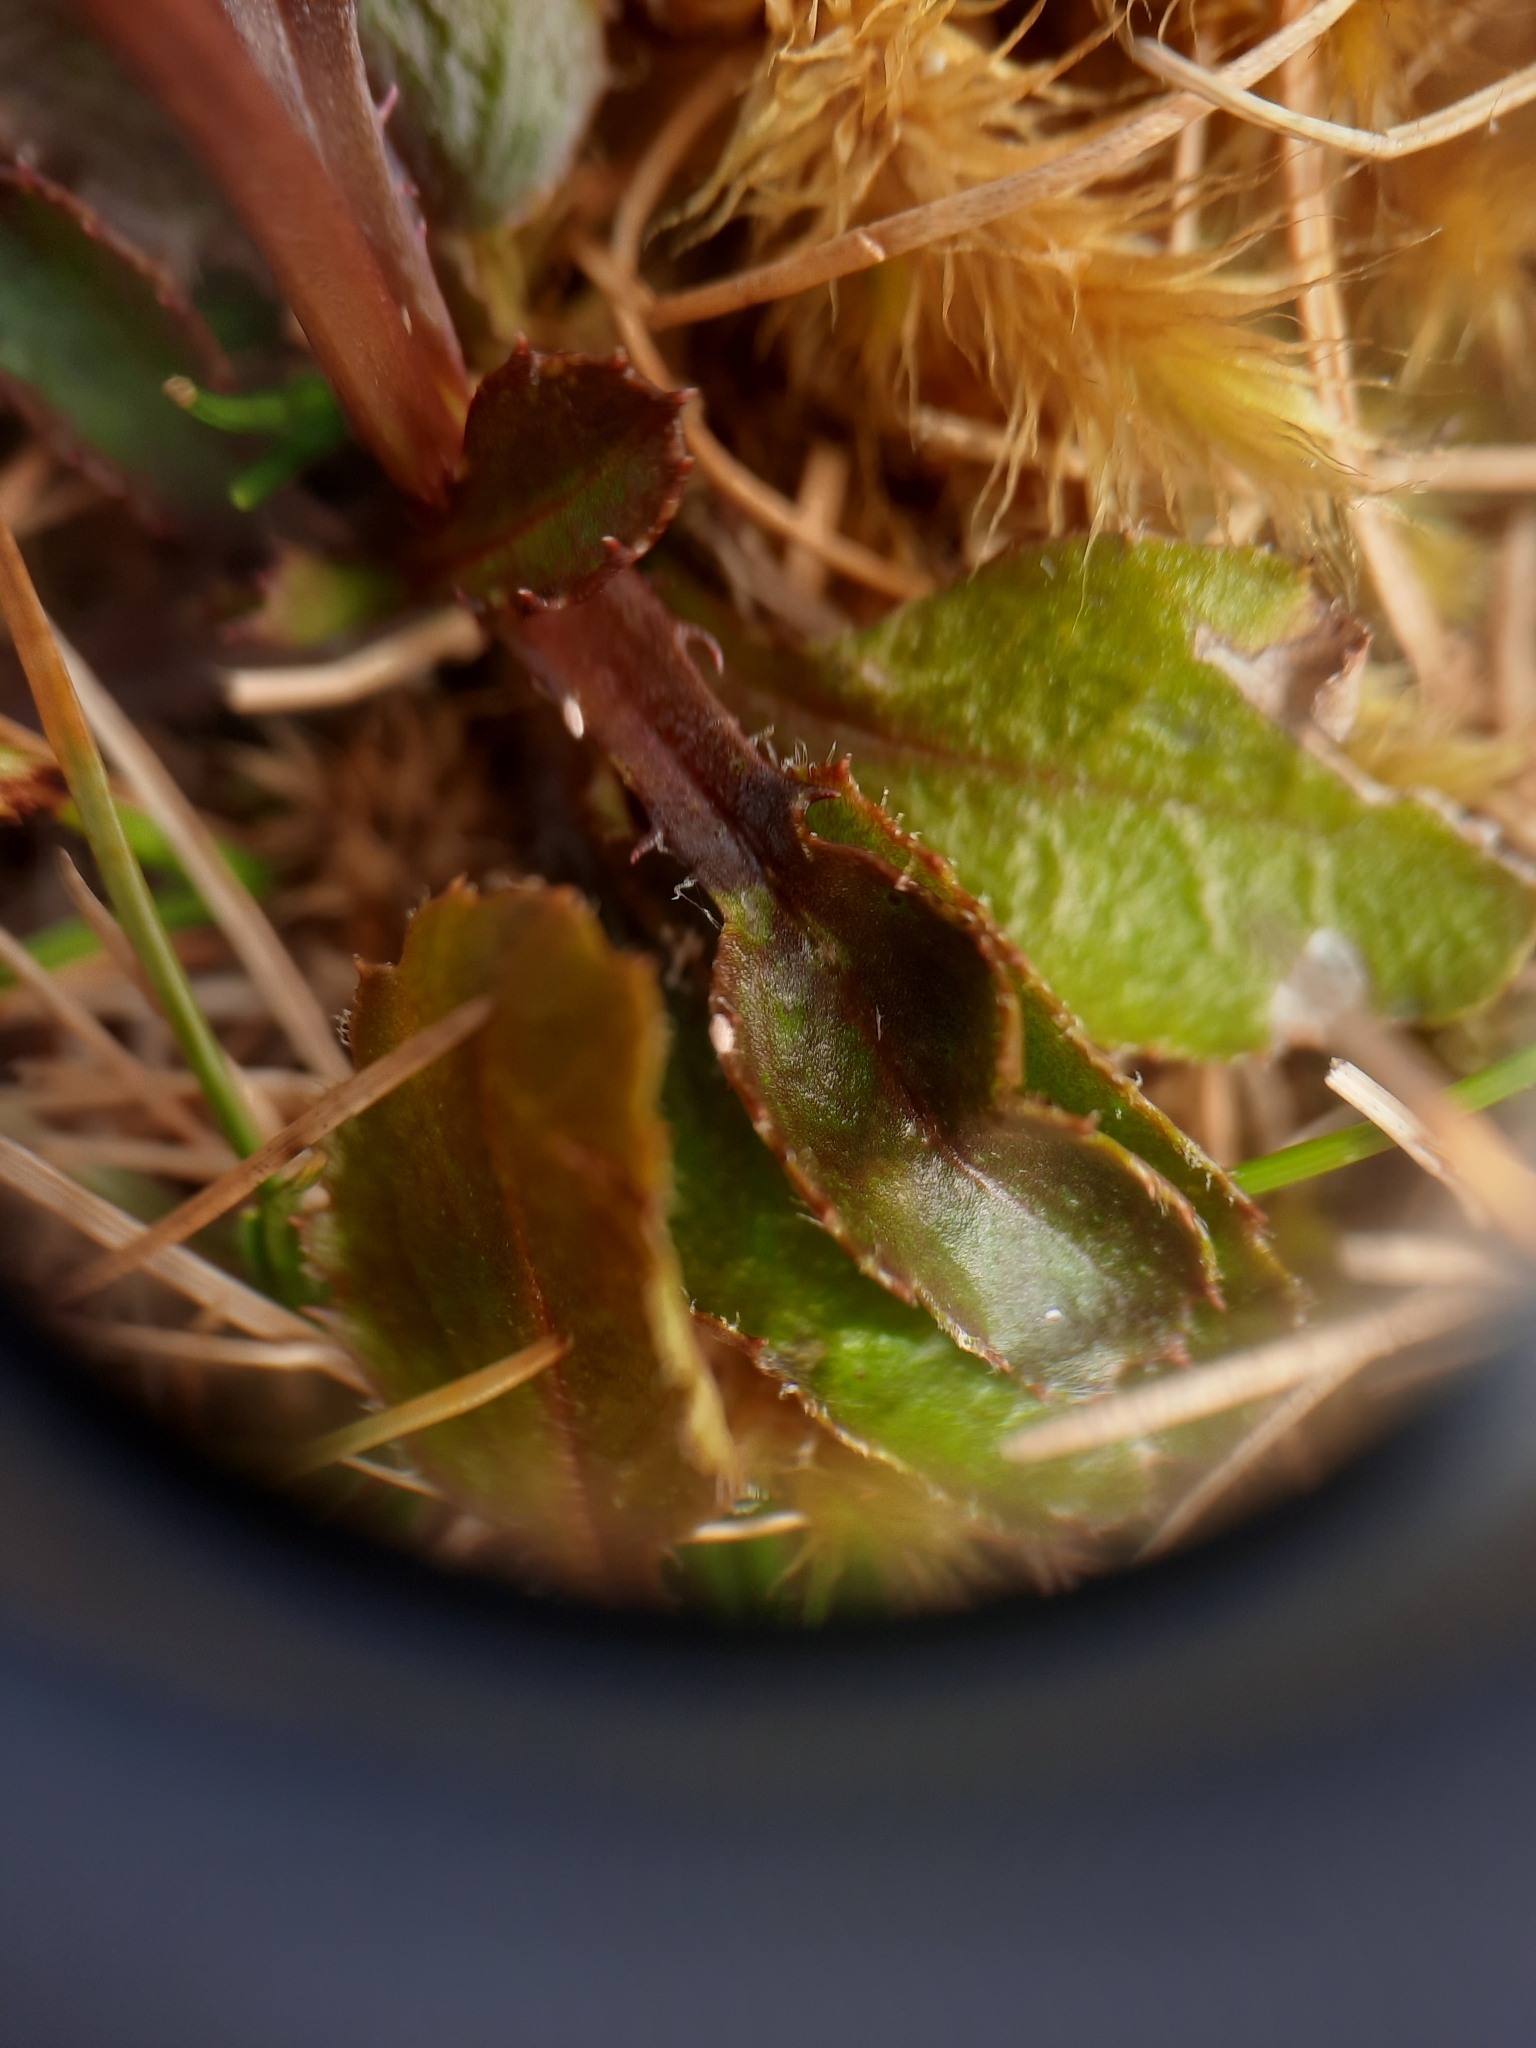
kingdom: Plantae
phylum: Tracheophyta
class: Magnoliopsida
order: Asterales
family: Asteraceae
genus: Lagenophora
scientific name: Lagenophora pumila
